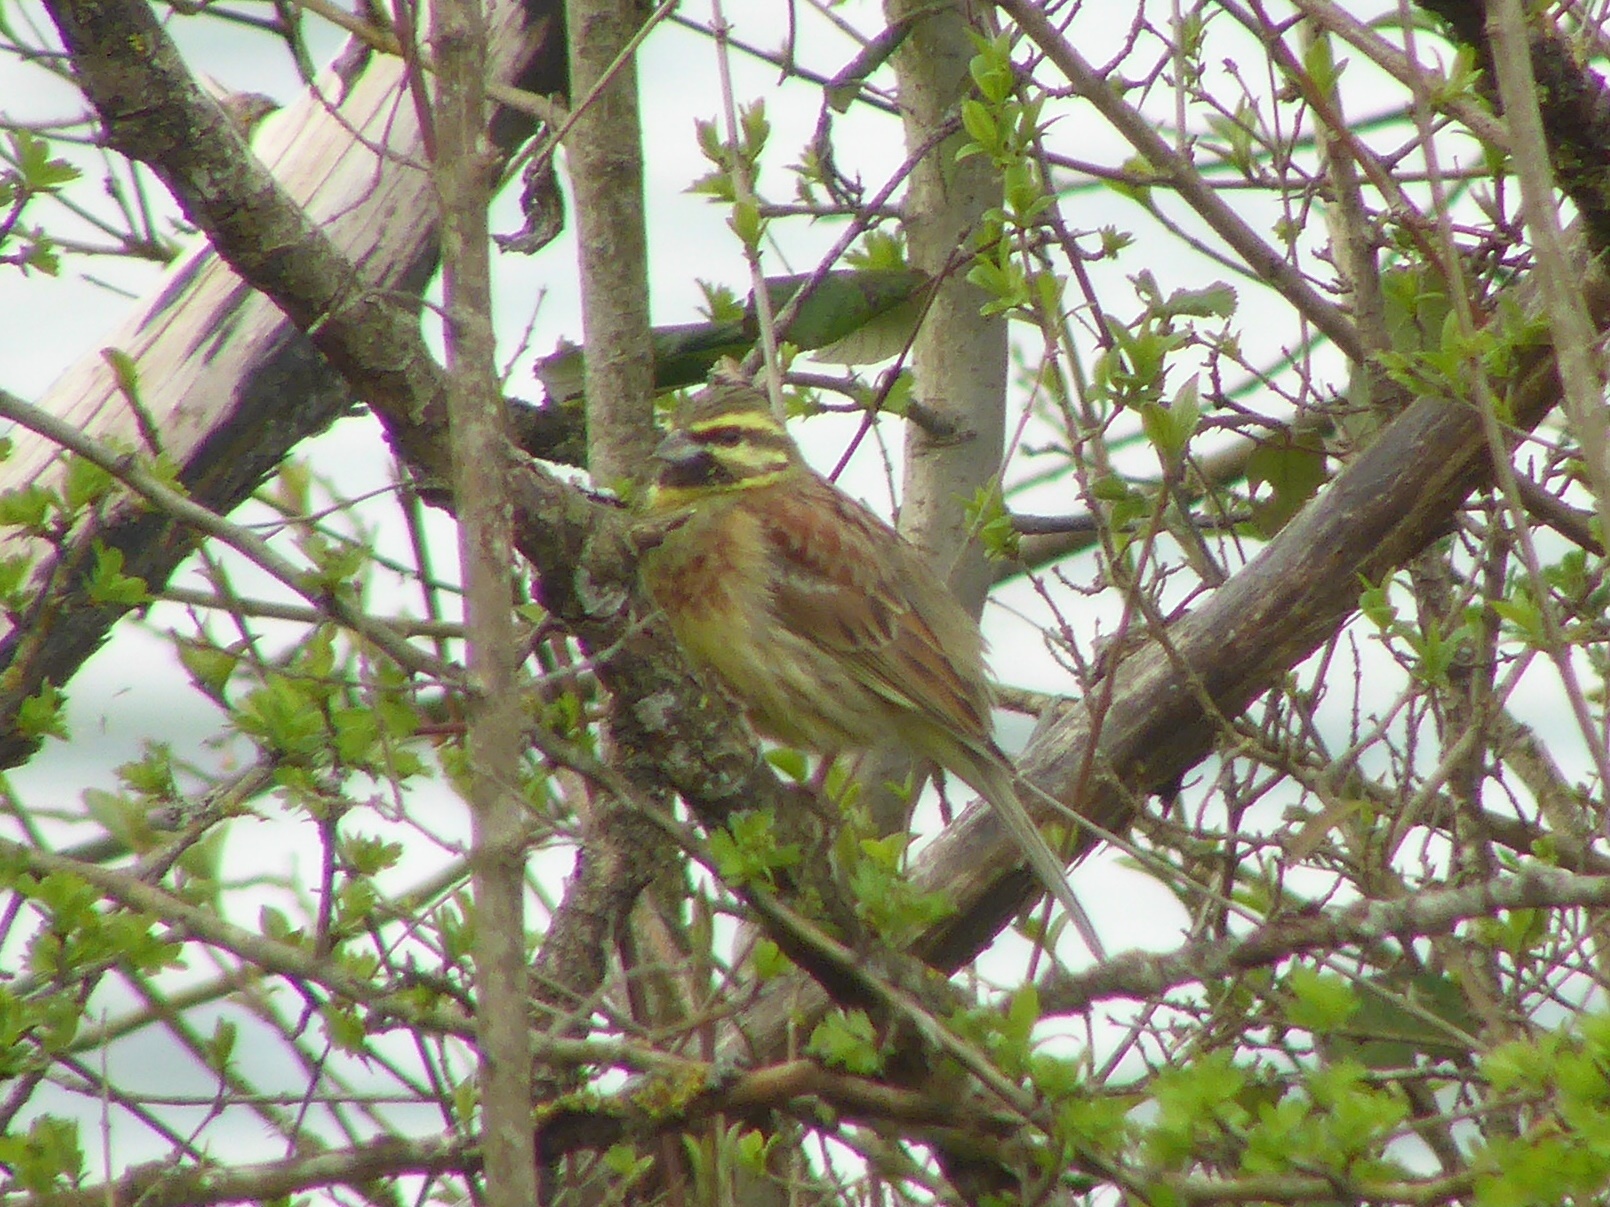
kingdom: Animalia
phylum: Chordata
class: Aves
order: Passeriformes
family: Emberizidae
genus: Emberiza
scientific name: Emberiza cirlus
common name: Cirl bunting
